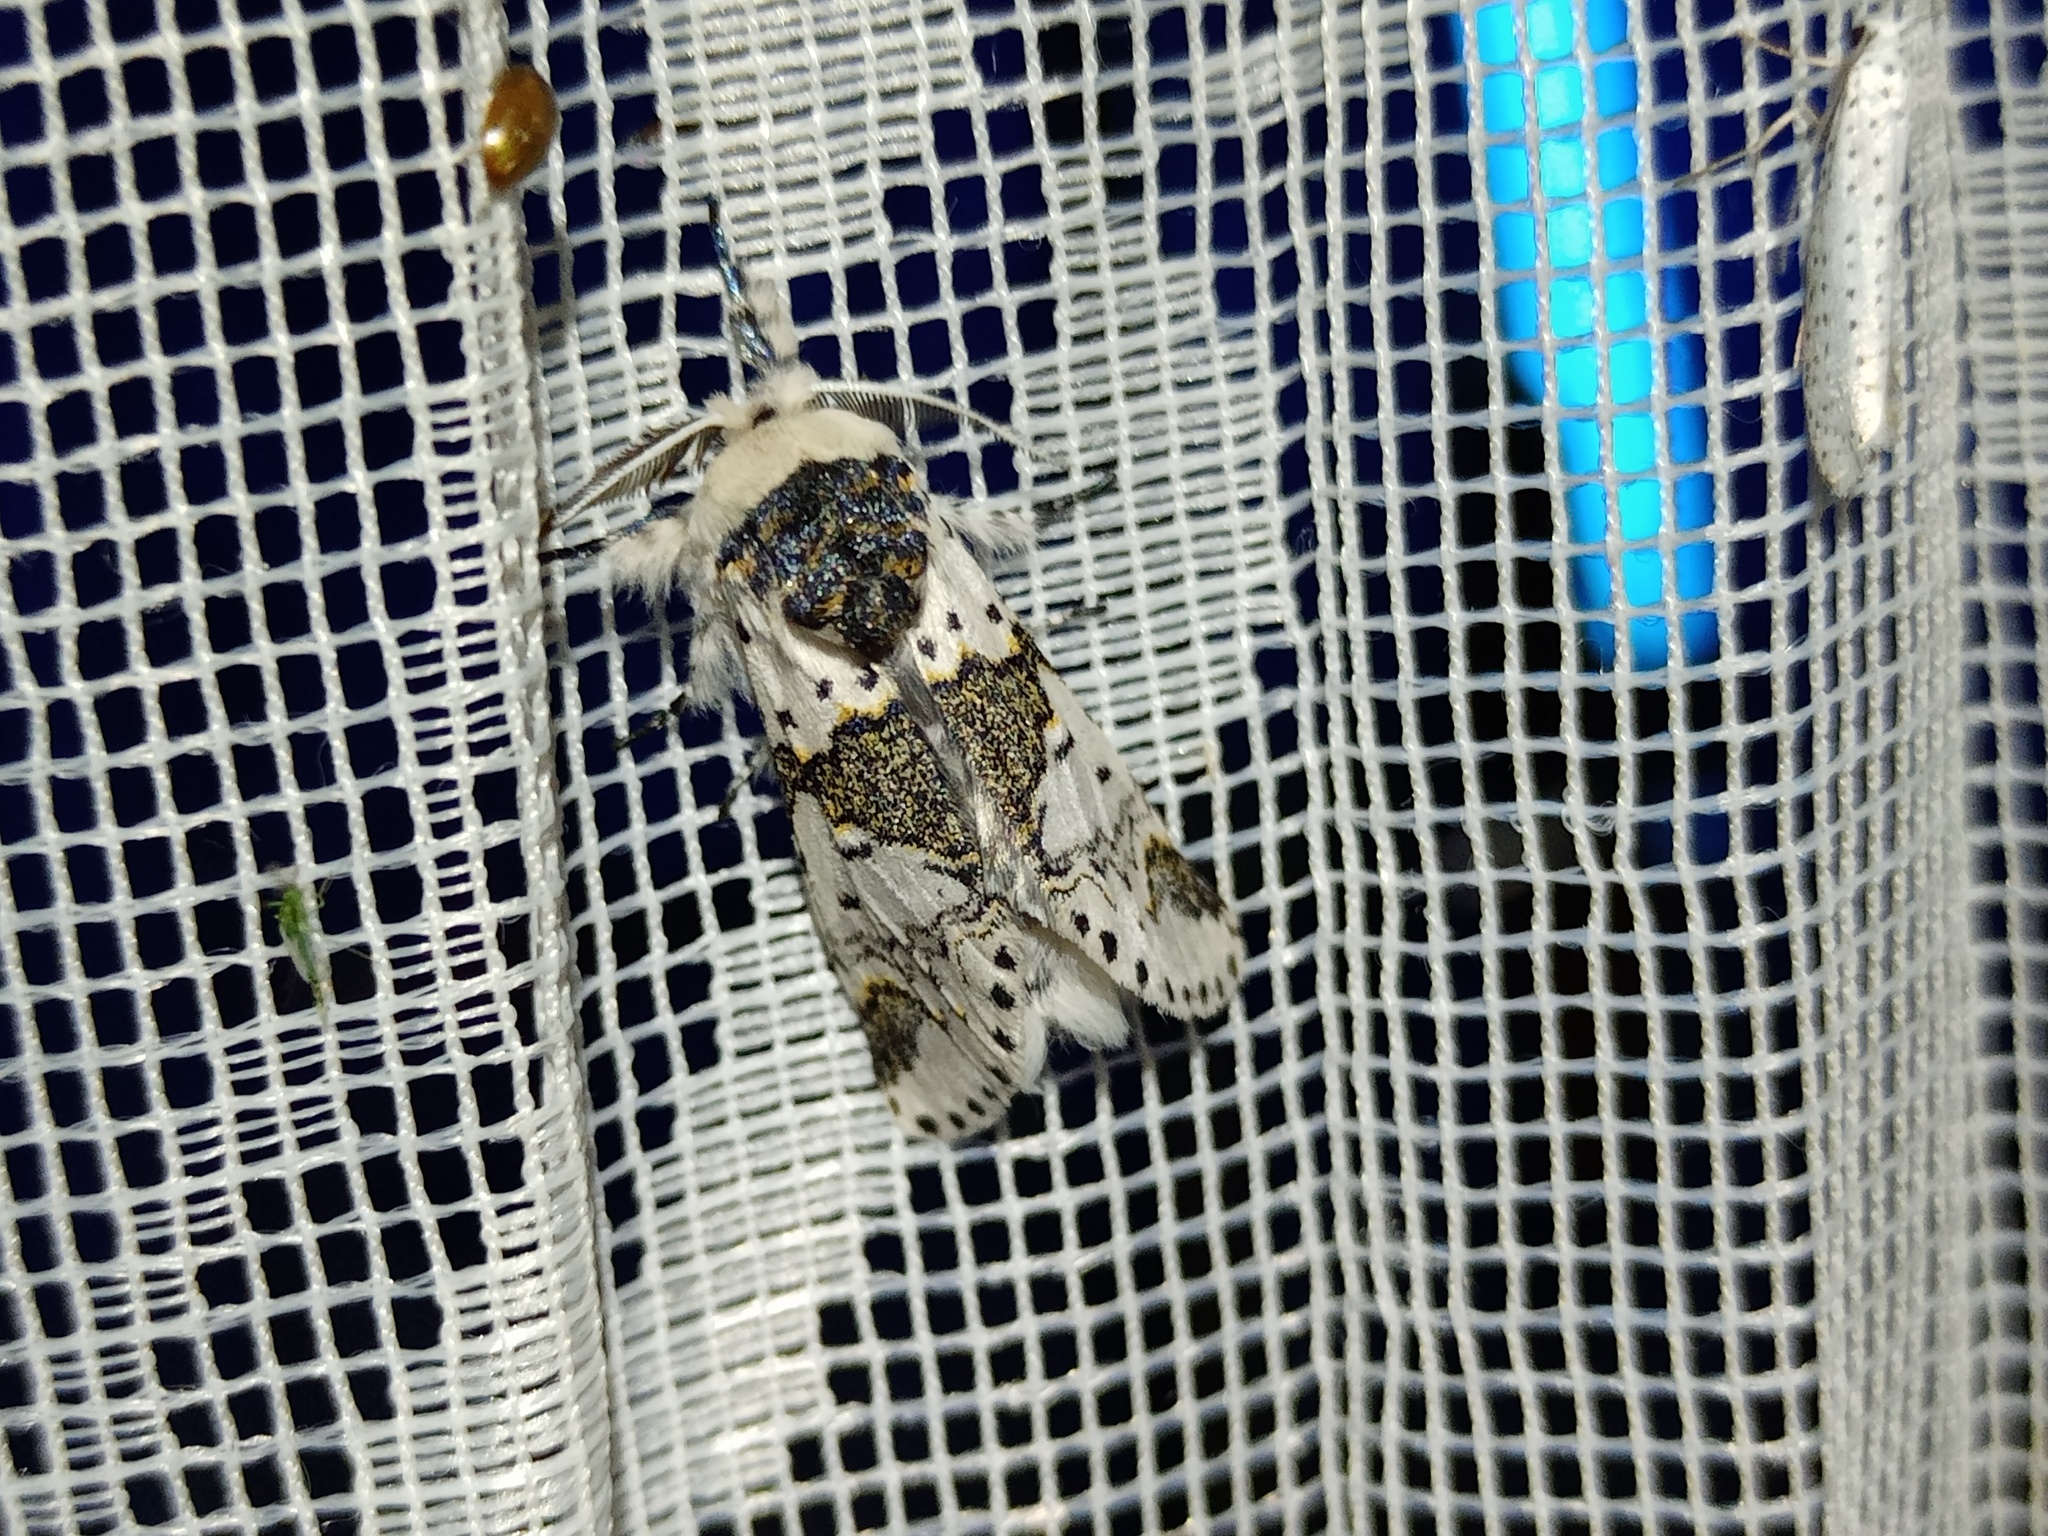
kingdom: Animalia
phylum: Arthropoda
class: Insecta
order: Lepidoptera
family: Notodontidae
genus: Furcula
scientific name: Furcula bicuspis
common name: Alder kitten
